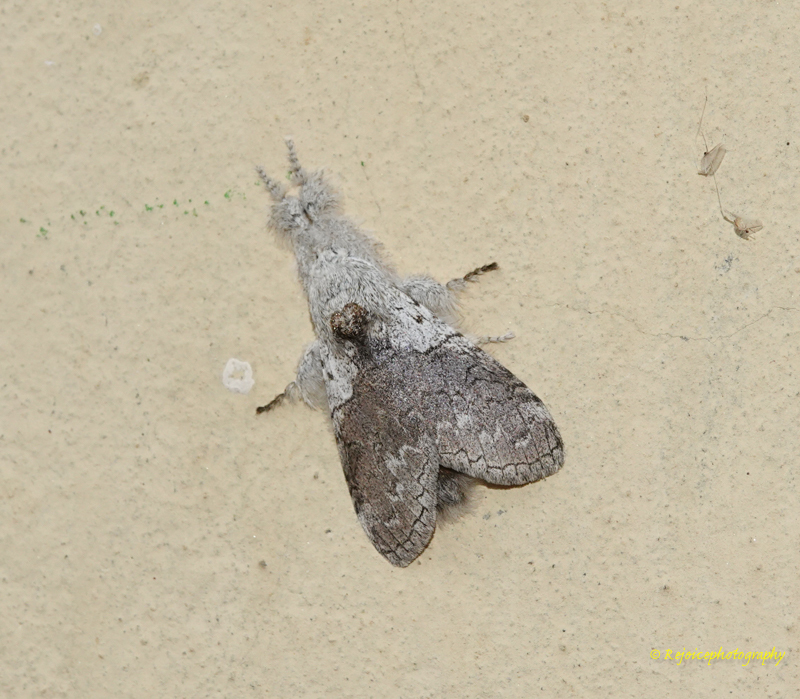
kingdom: Animalia
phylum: Arthropoda
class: Insecta
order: Lepidoptera
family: Erebidae
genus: Calliteara
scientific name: Calliteara grotei
